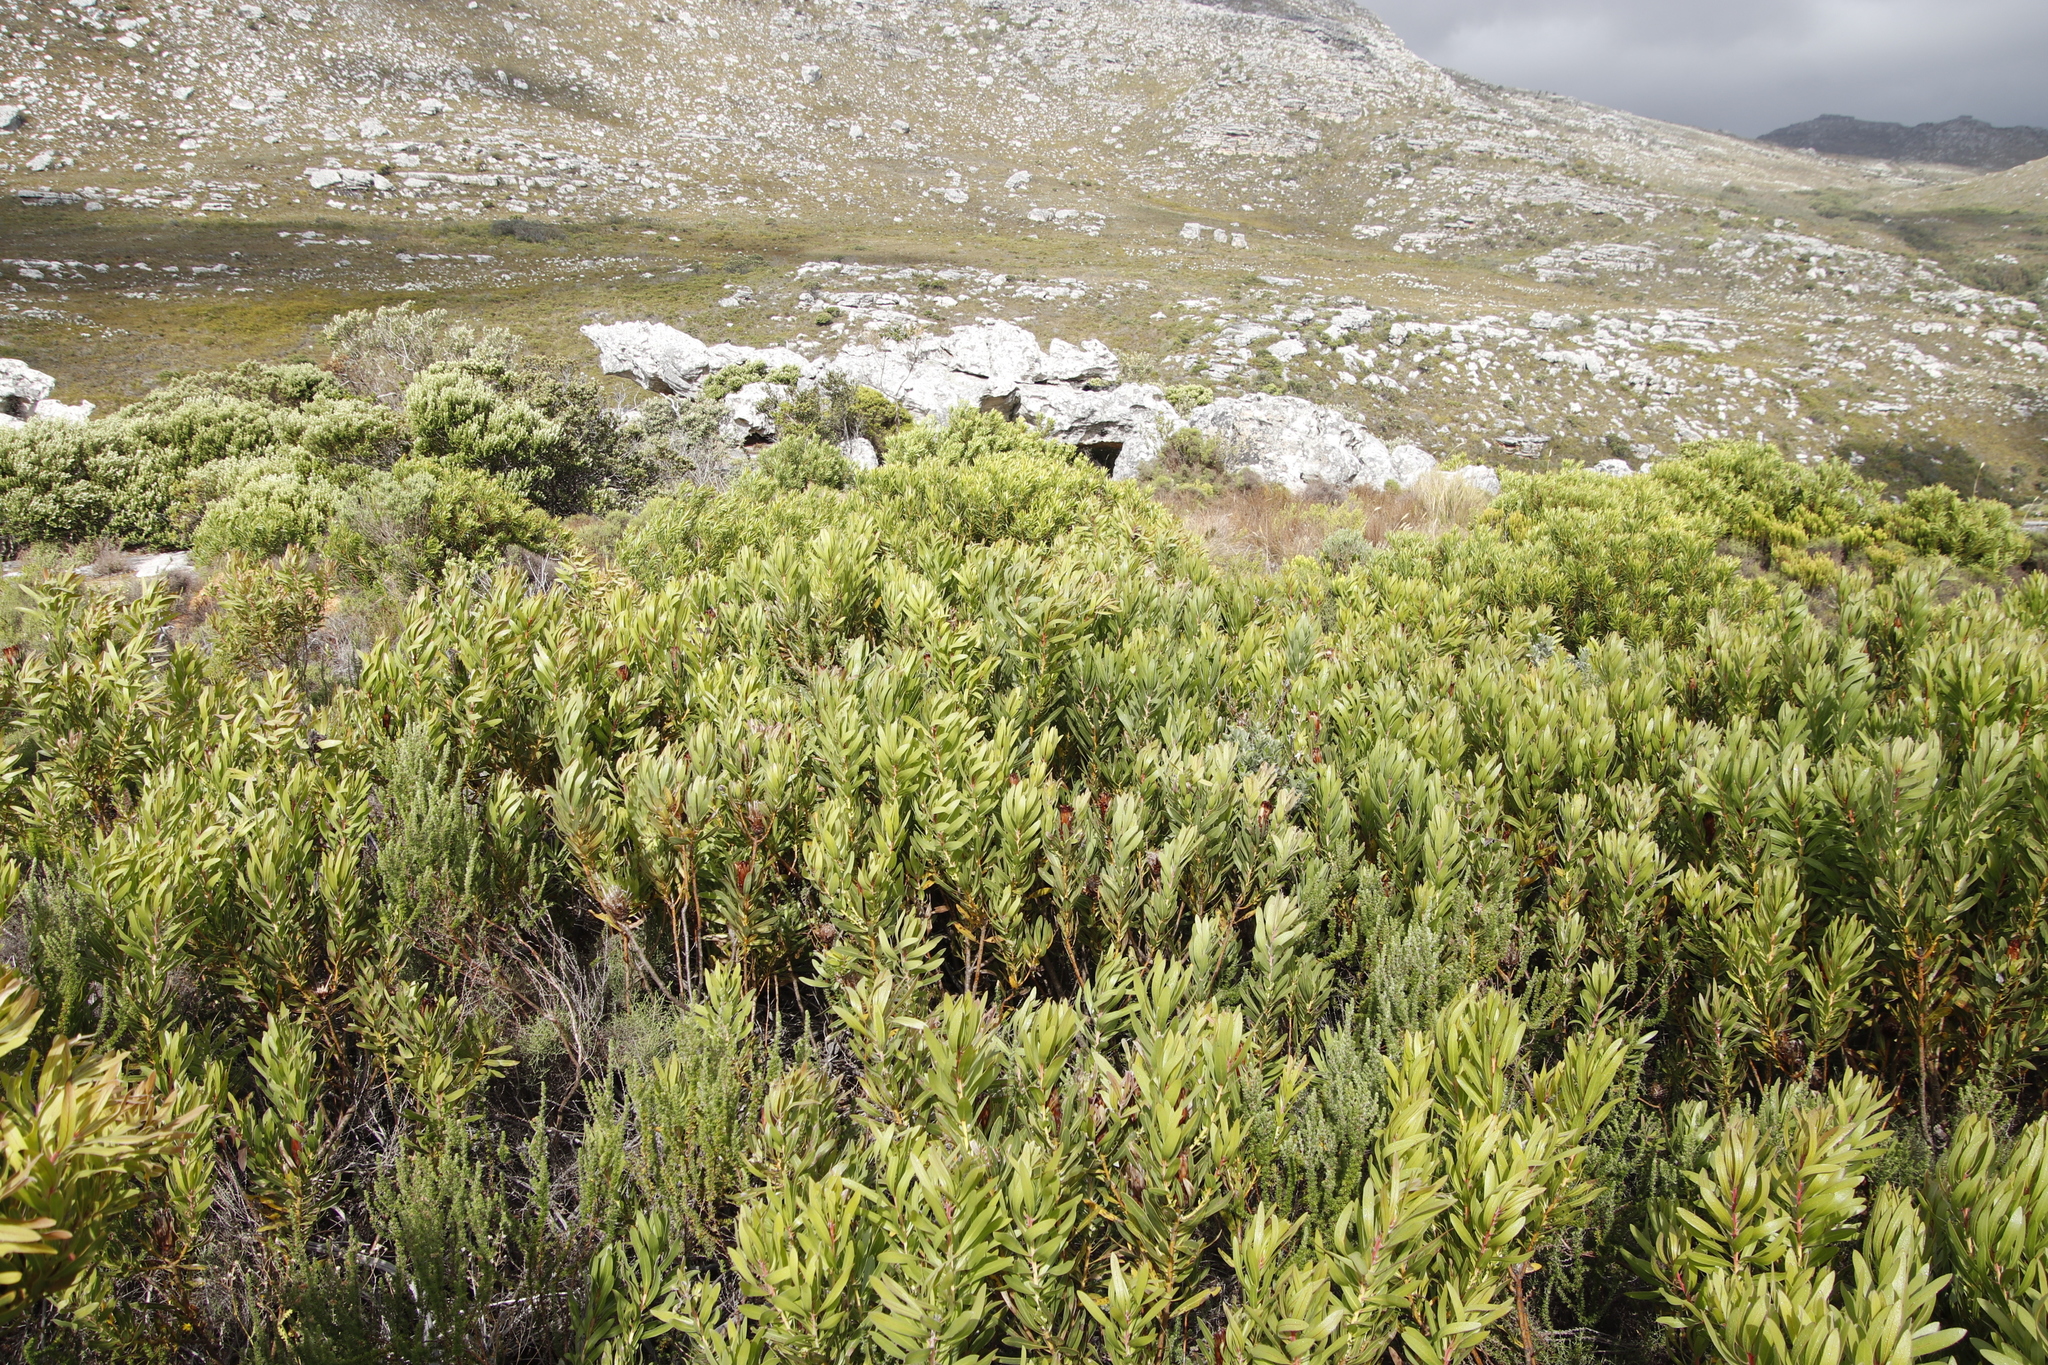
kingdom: Plantae
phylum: Tracheophyta
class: Magnoliopsida
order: Proteales
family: Proteaceae
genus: Protea
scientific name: Protea lepidocarpodendron
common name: Black-bearded protea
